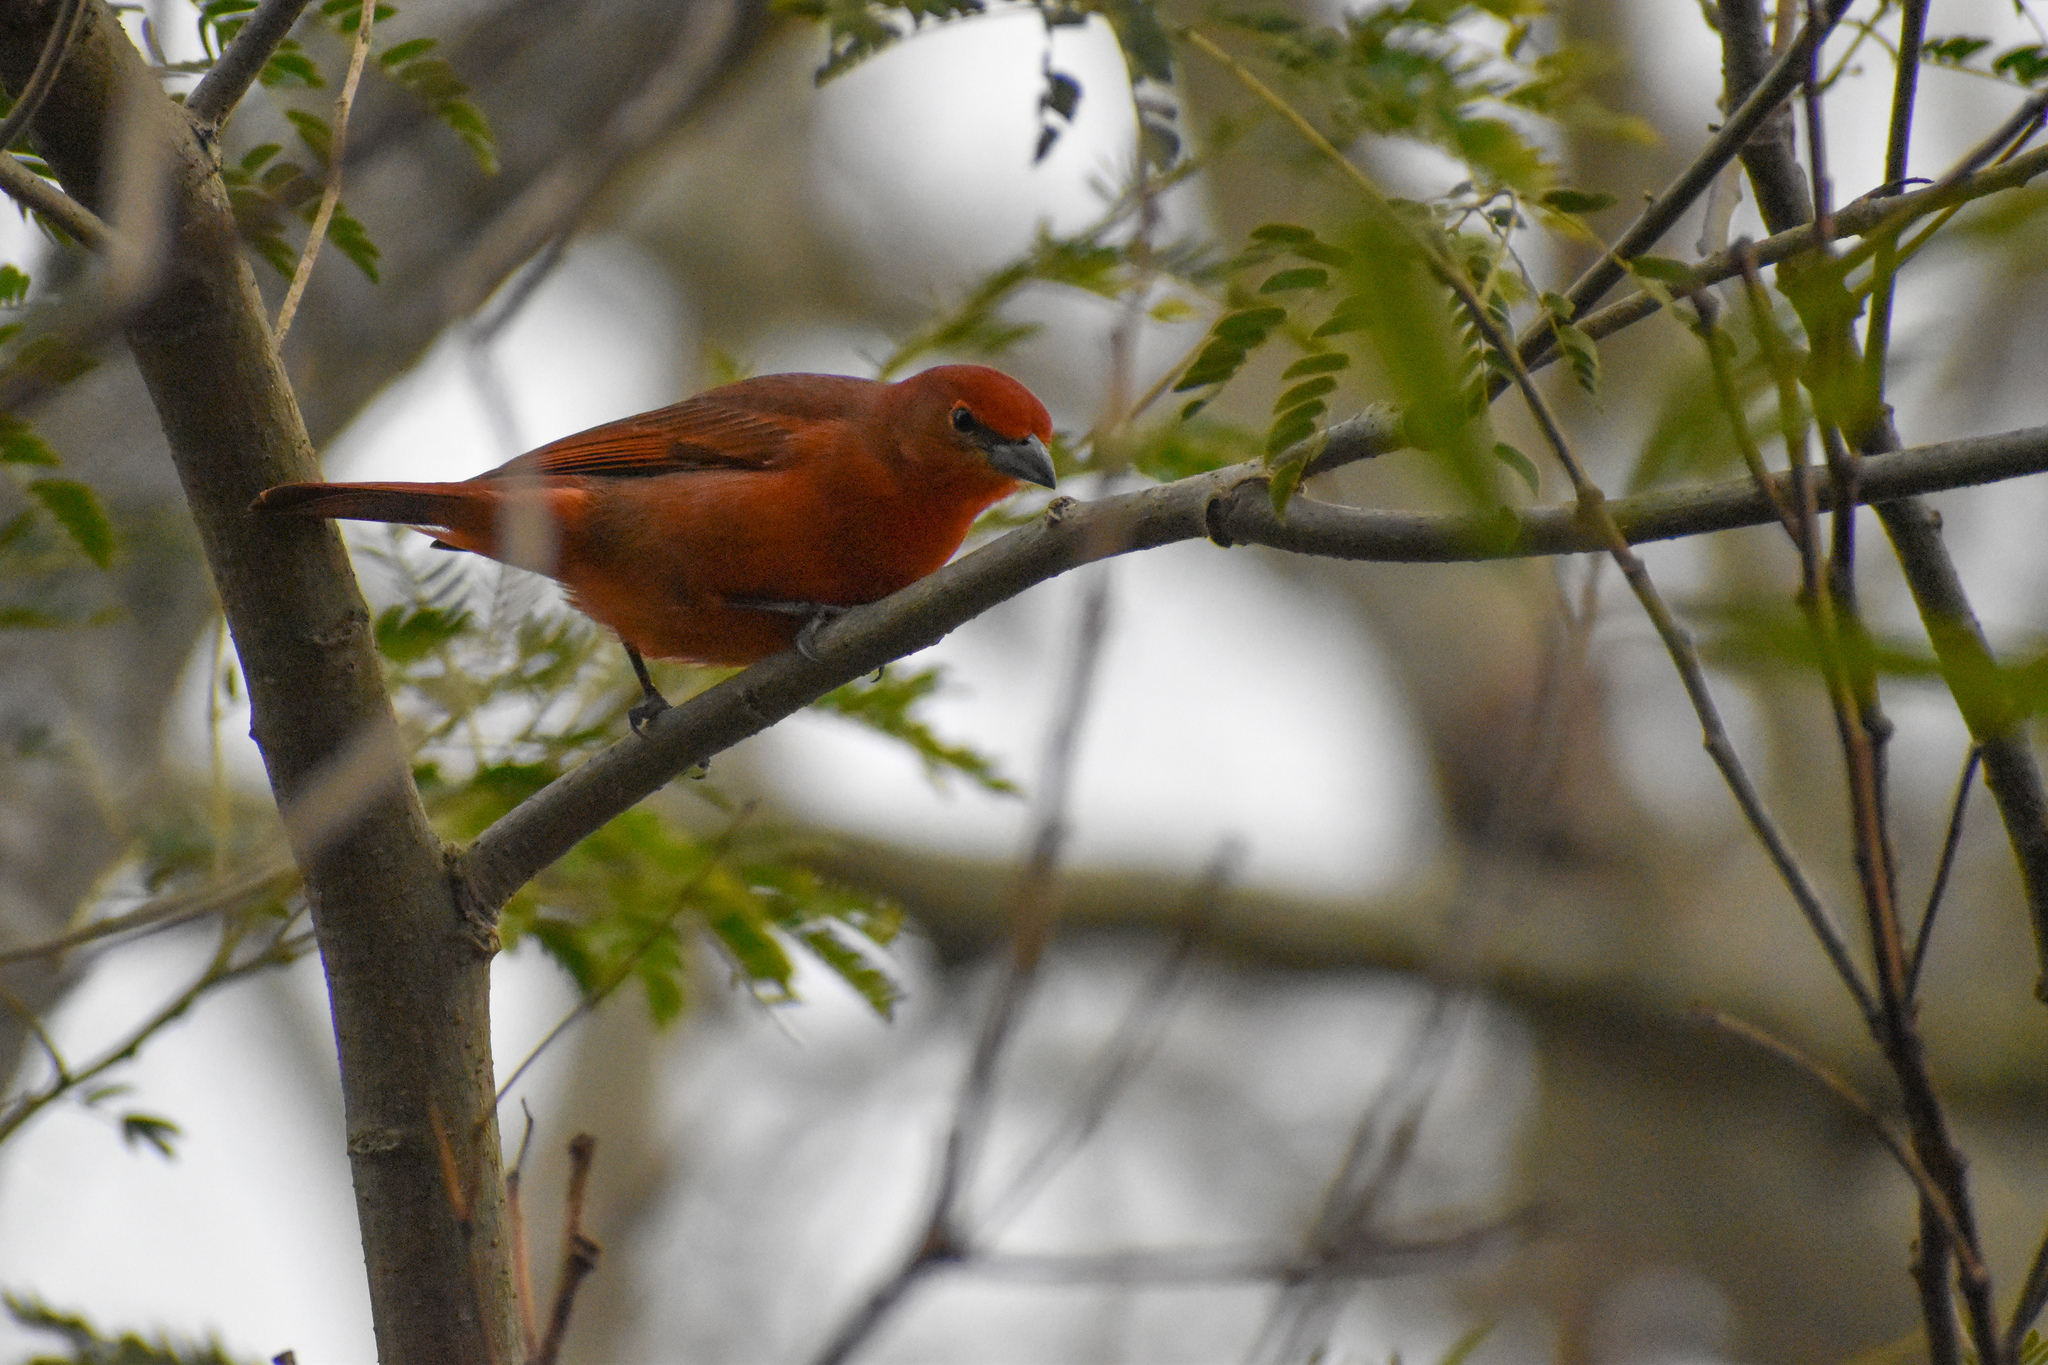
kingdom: Animalia
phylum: Chordata
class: Aves
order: Passeriformes
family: Cardinalidae
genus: Piranga
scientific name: Piranga flava
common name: Red tanager
